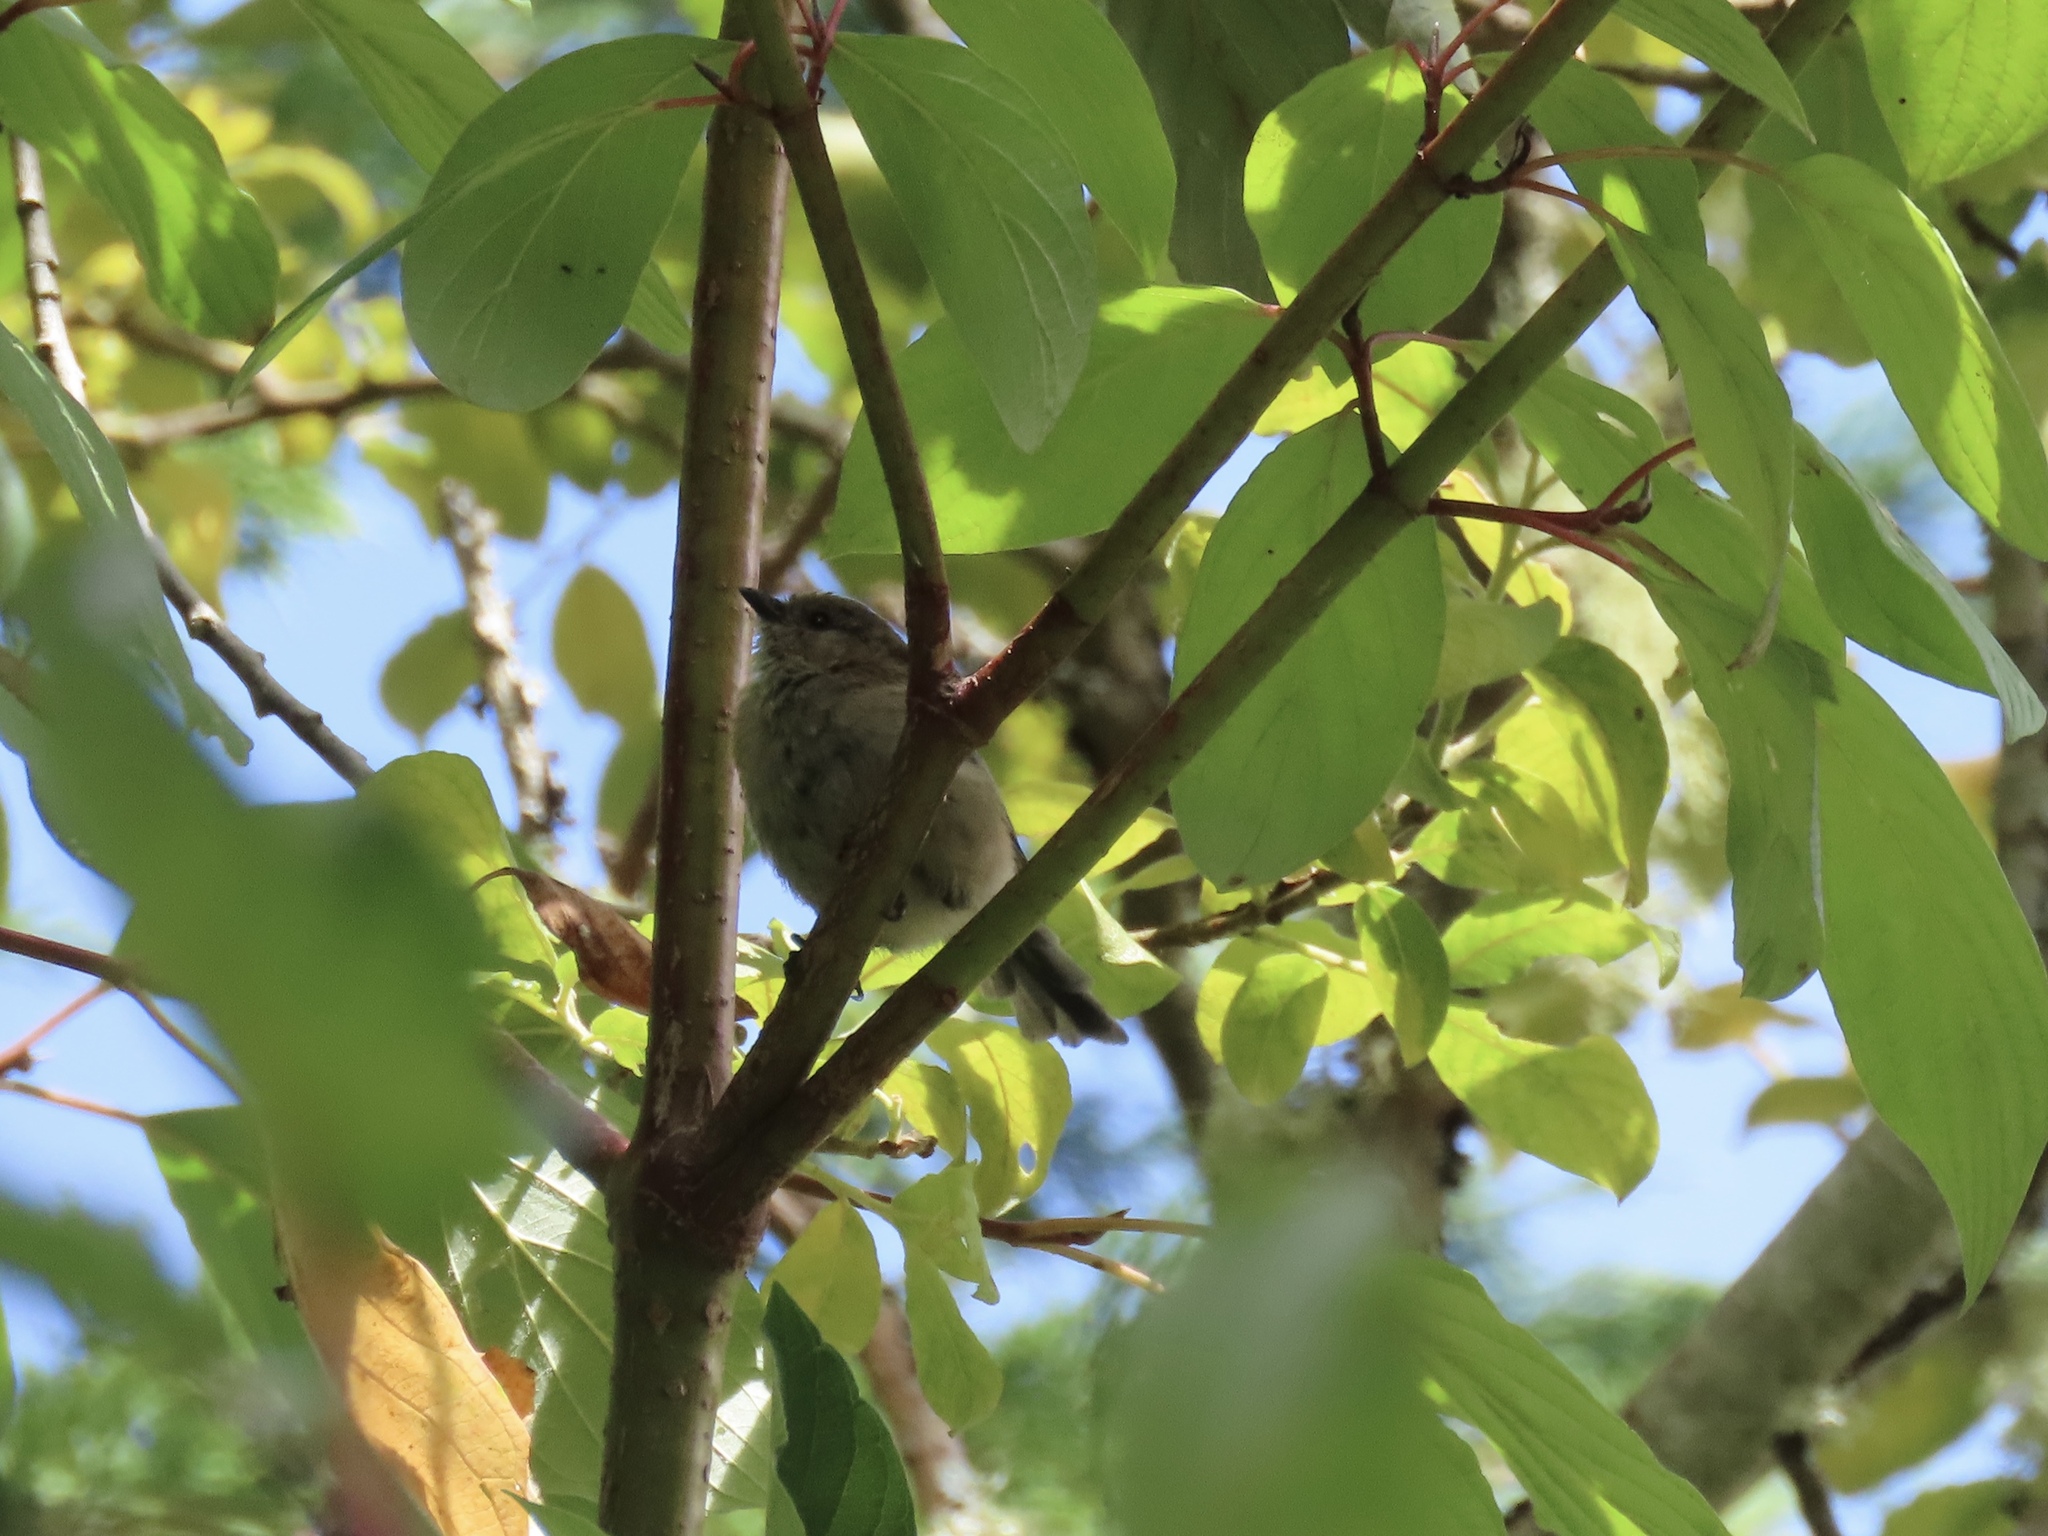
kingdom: Animalia
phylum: Chordata
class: Aves
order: Passeriformes
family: Aegithalidae
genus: Psaltriparus
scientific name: Psaltriparus minimus
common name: American bushtit
